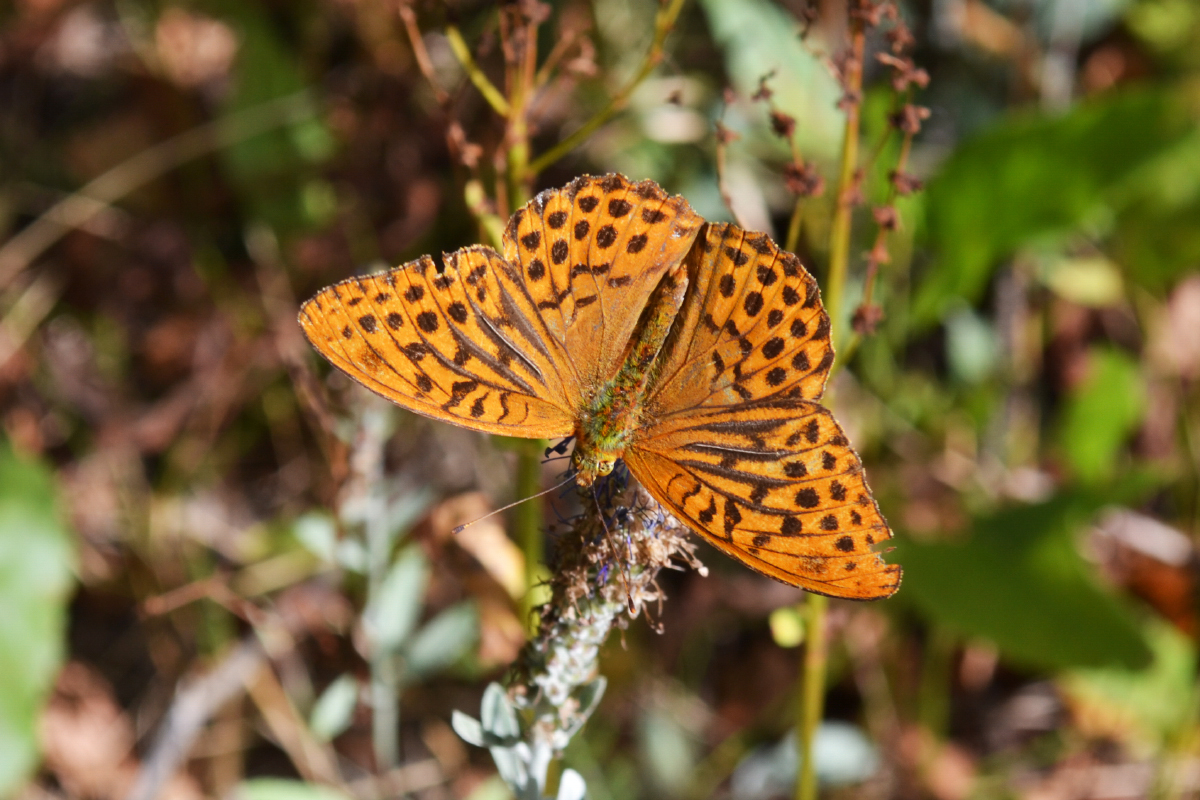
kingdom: Animalia
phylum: Arthropoda
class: Insecta
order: Lepidoptera
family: Nymphalidae
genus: Argynnis
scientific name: Argynnis paphia
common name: Silver-washed fritillary
